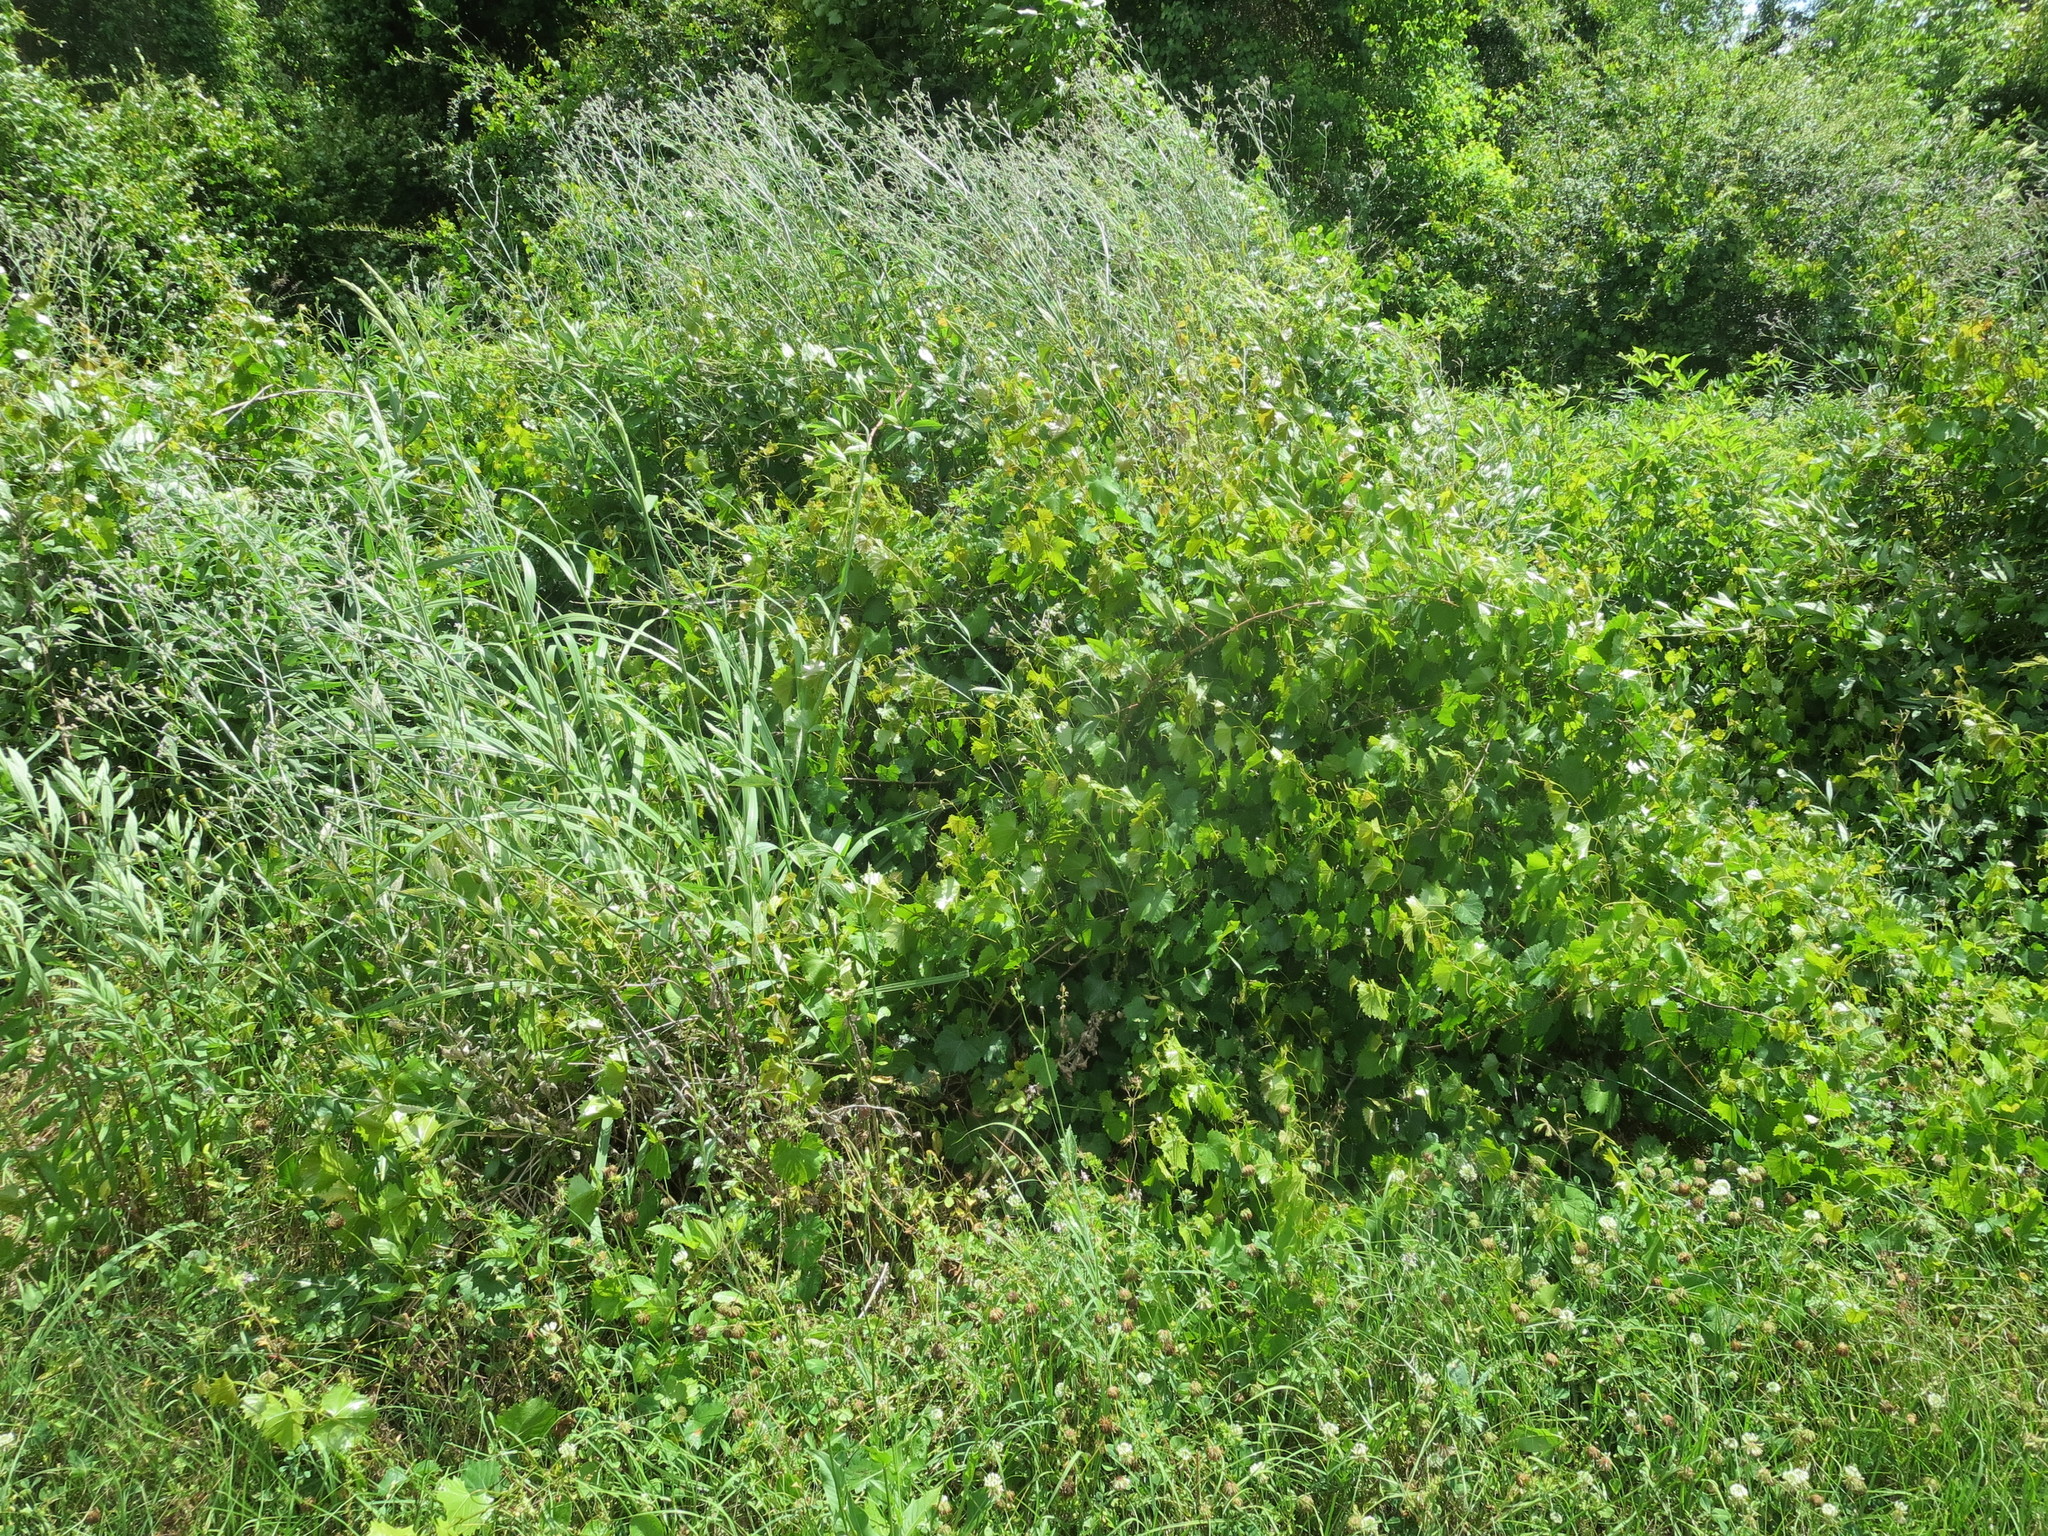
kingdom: Plantae
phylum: Tracheophyta
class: Magnoliopsida
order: Vitales
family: Vitaceae
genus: Vitis
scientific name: Vitis rotundifolia
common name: Muscadine grape
